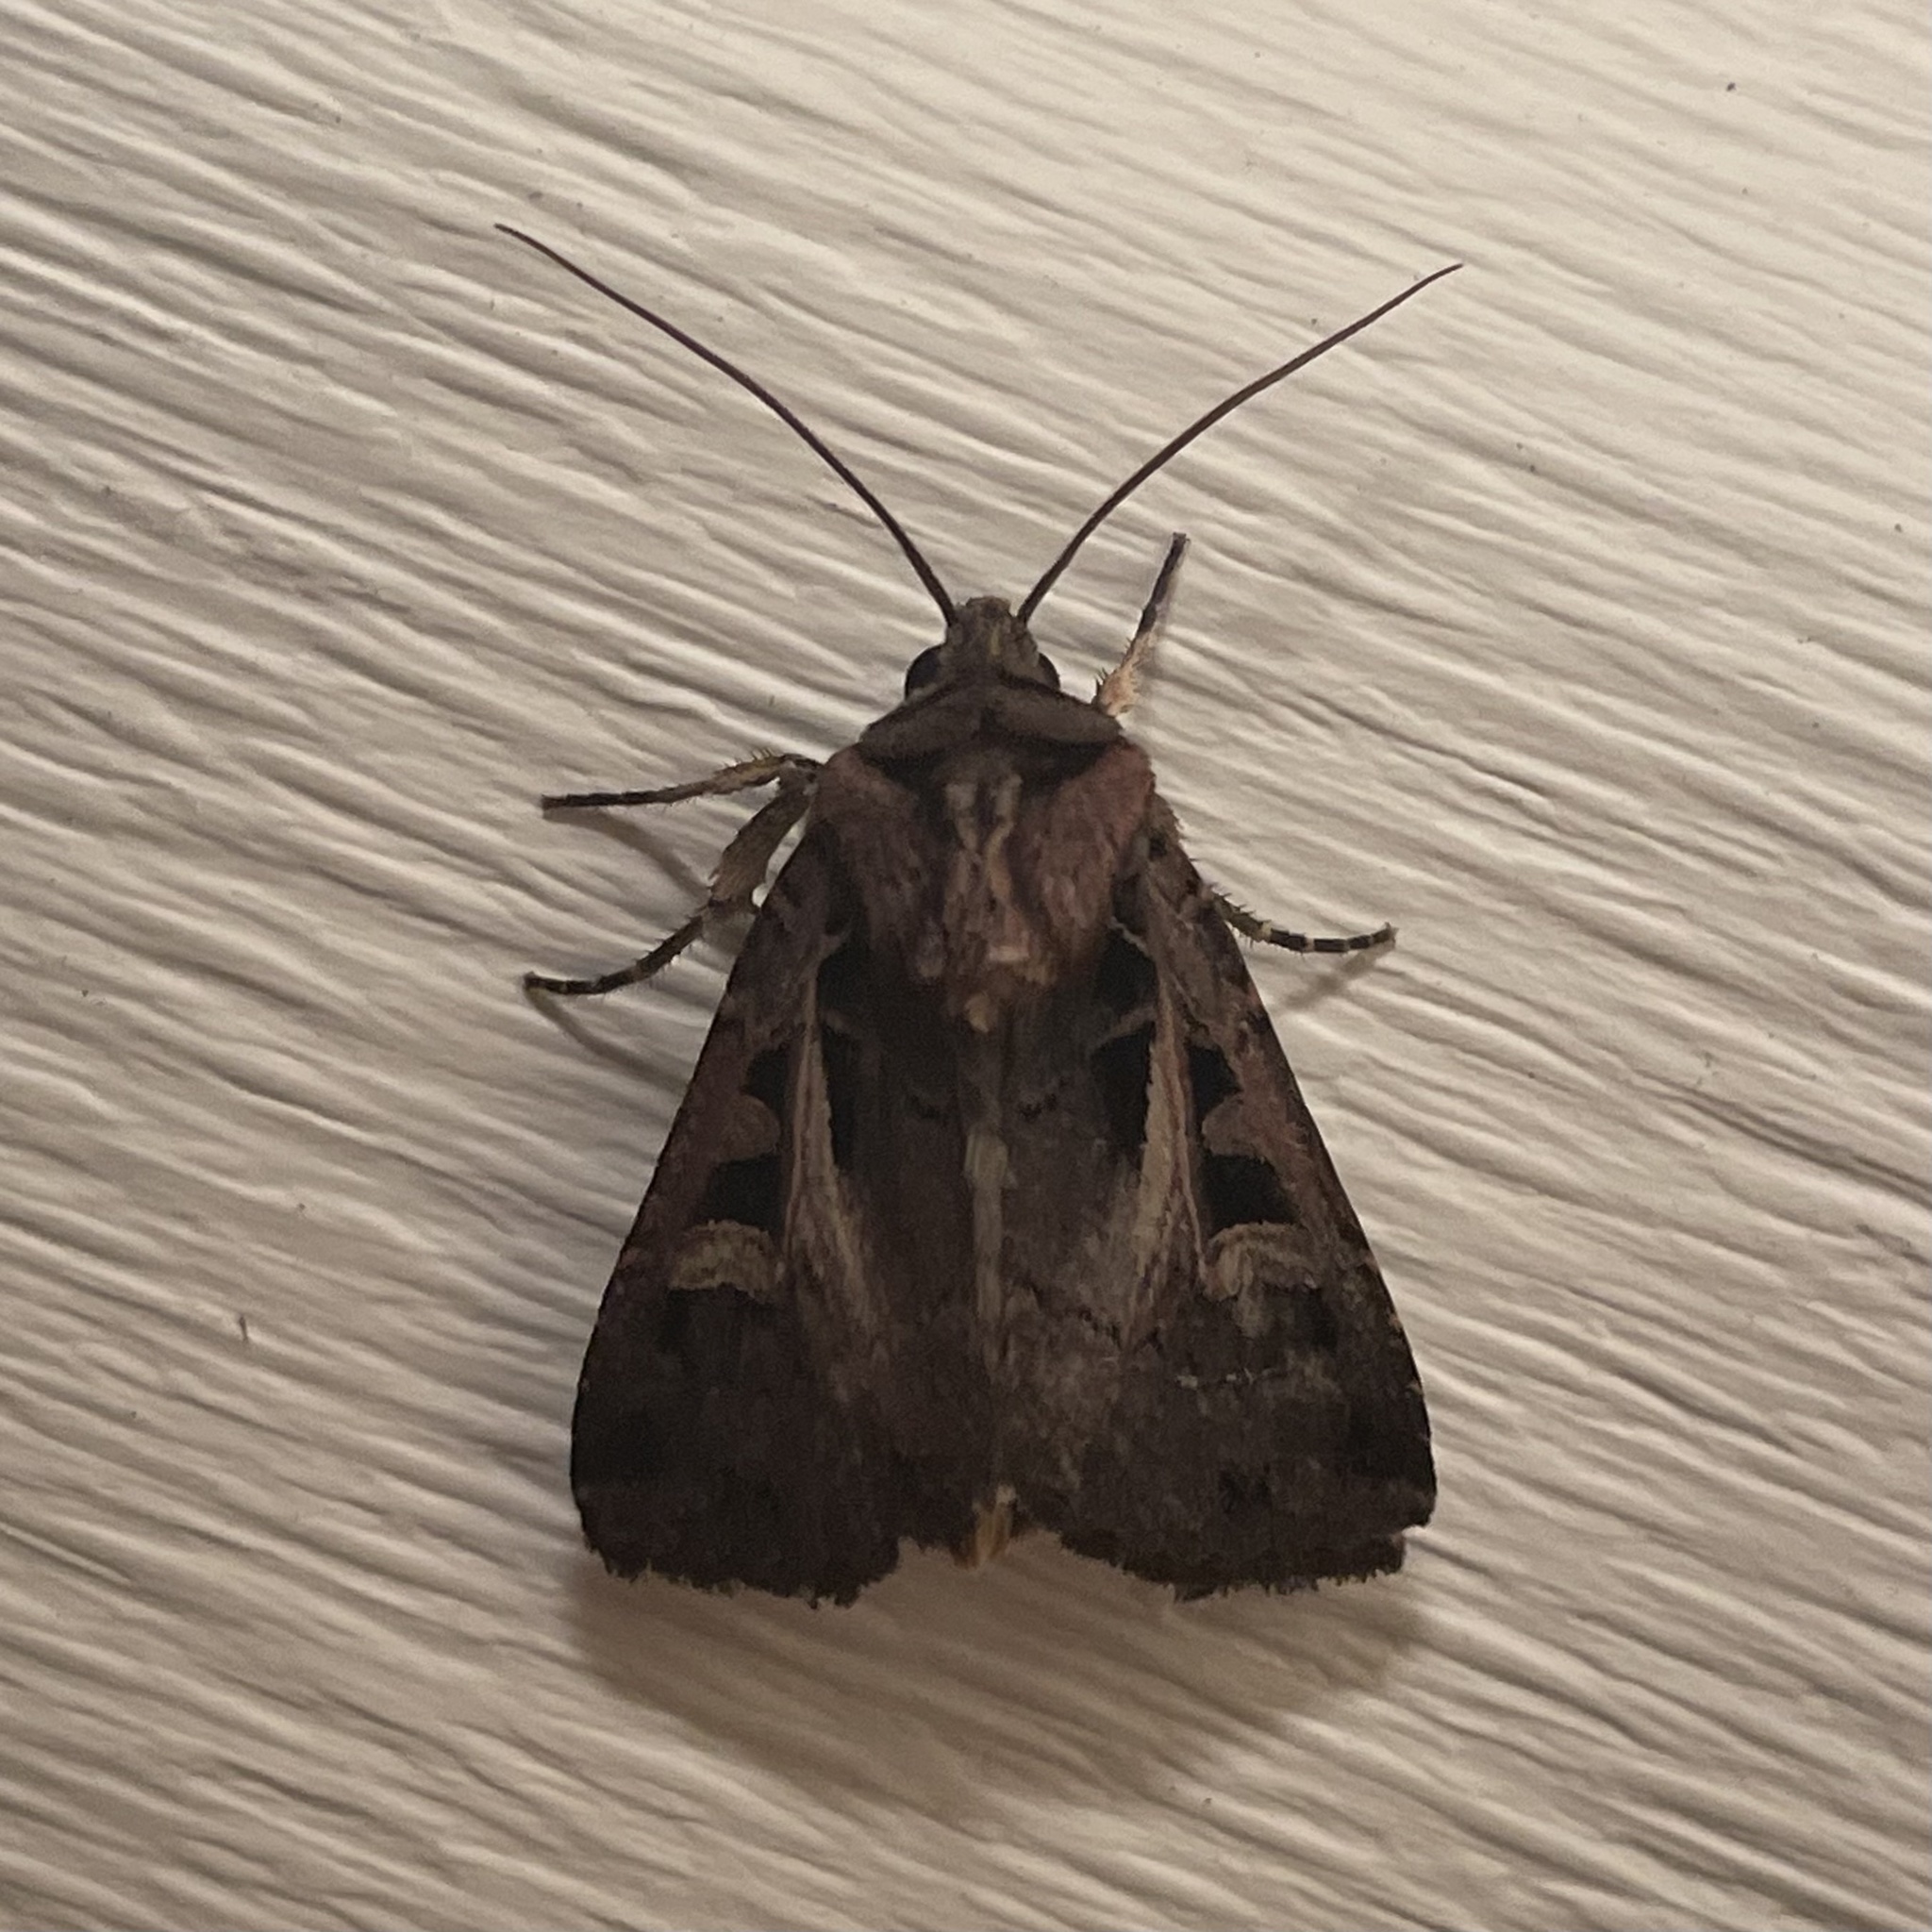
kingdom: Animalia
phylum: Arthropoda
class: Insecta
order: Lepidoptera
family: Noctuidae
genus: Feltia
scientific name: Feltia herilis
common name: Master's dart
